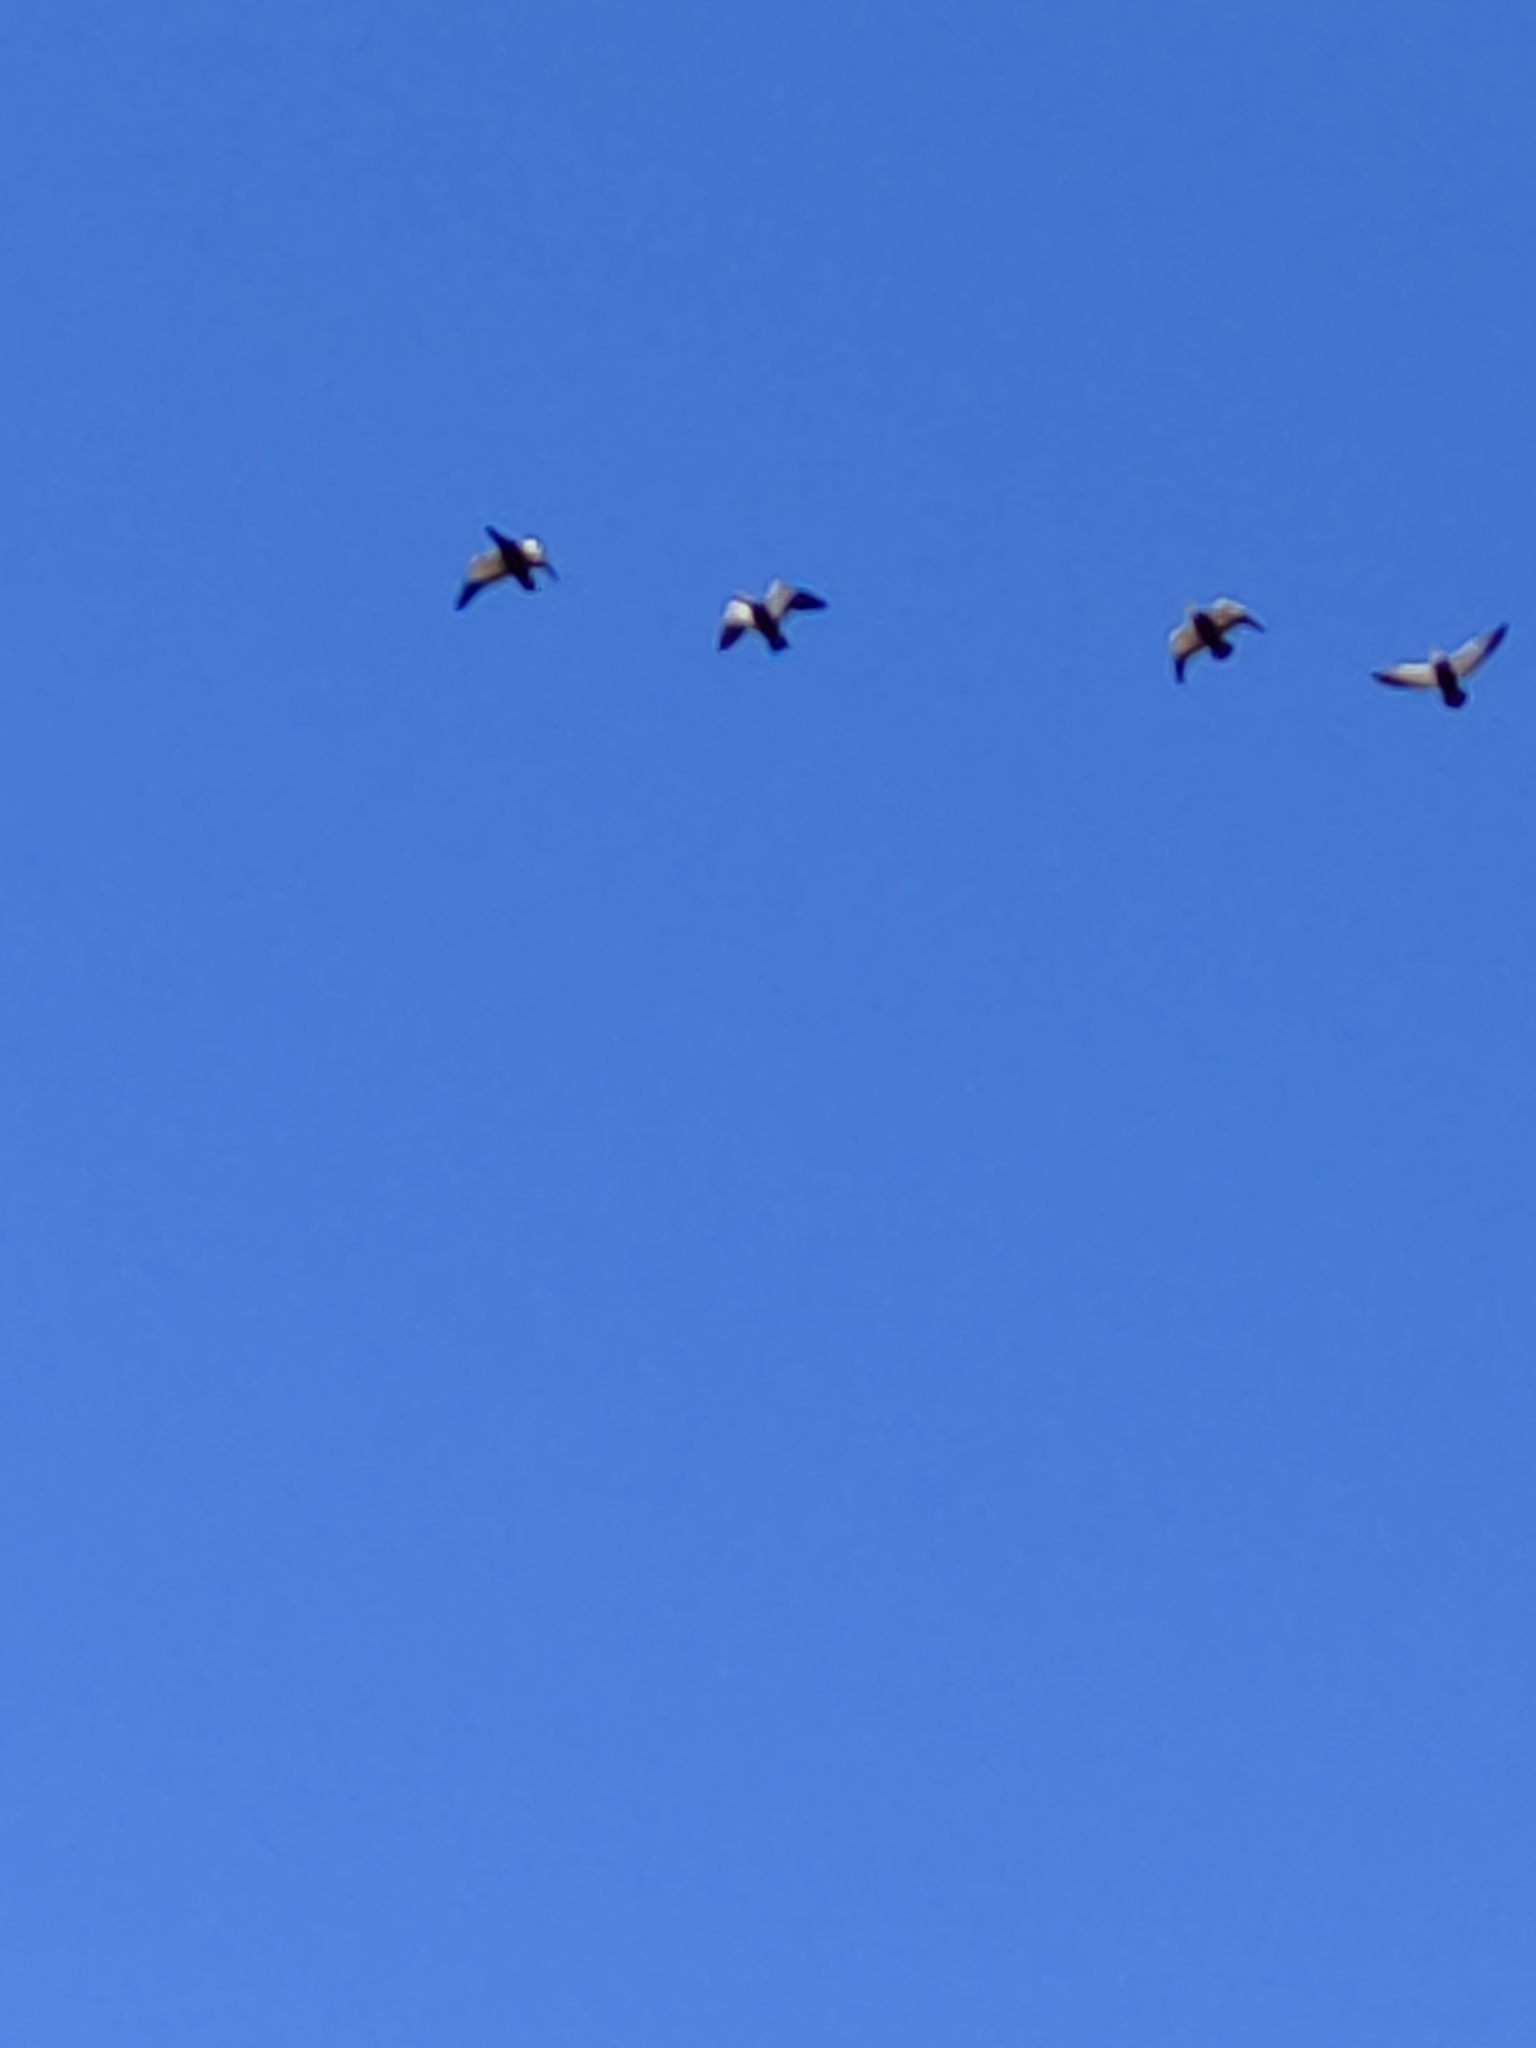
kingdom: Animalia
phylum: Chordata
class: Aves
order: Anseriformes
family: Anatidae
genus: Tadorna
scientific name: Tadorna variegata
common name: Paradise shelduck
